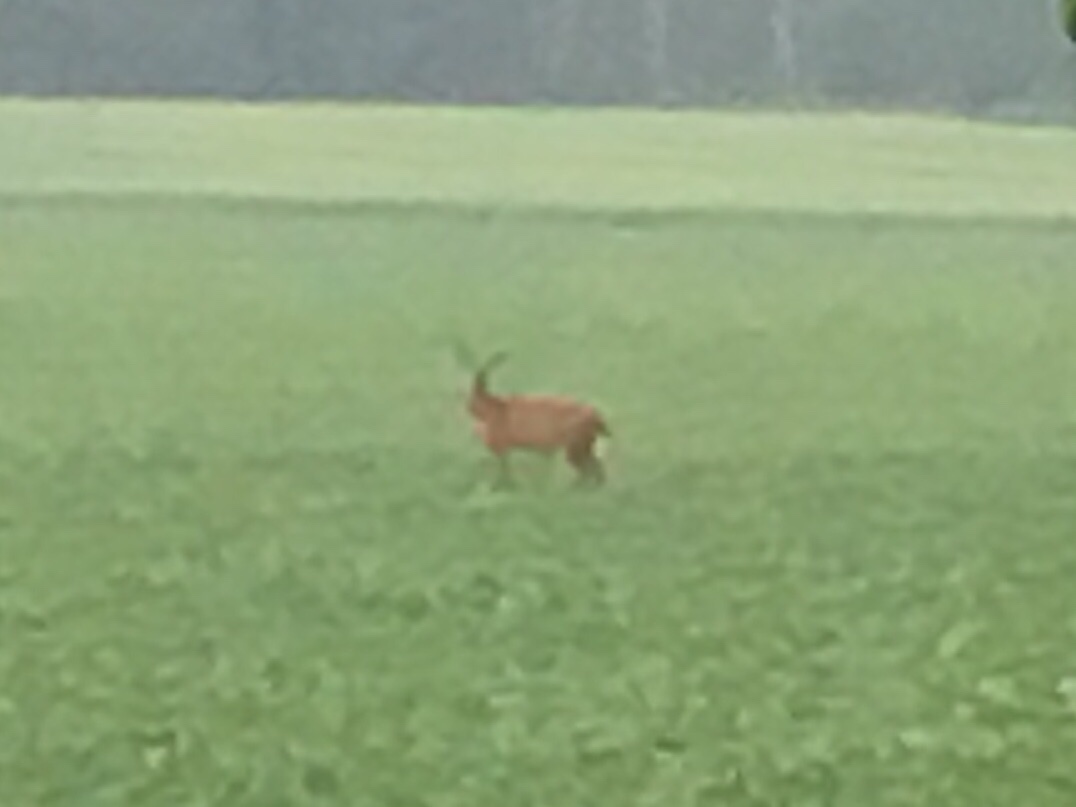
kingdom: Animalia
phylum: Chordata
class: Mammalia
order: Artiodactyla
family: Cervidae
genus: Odocoileus
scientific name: Odocoileus virginianus
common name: White-tailed deer
